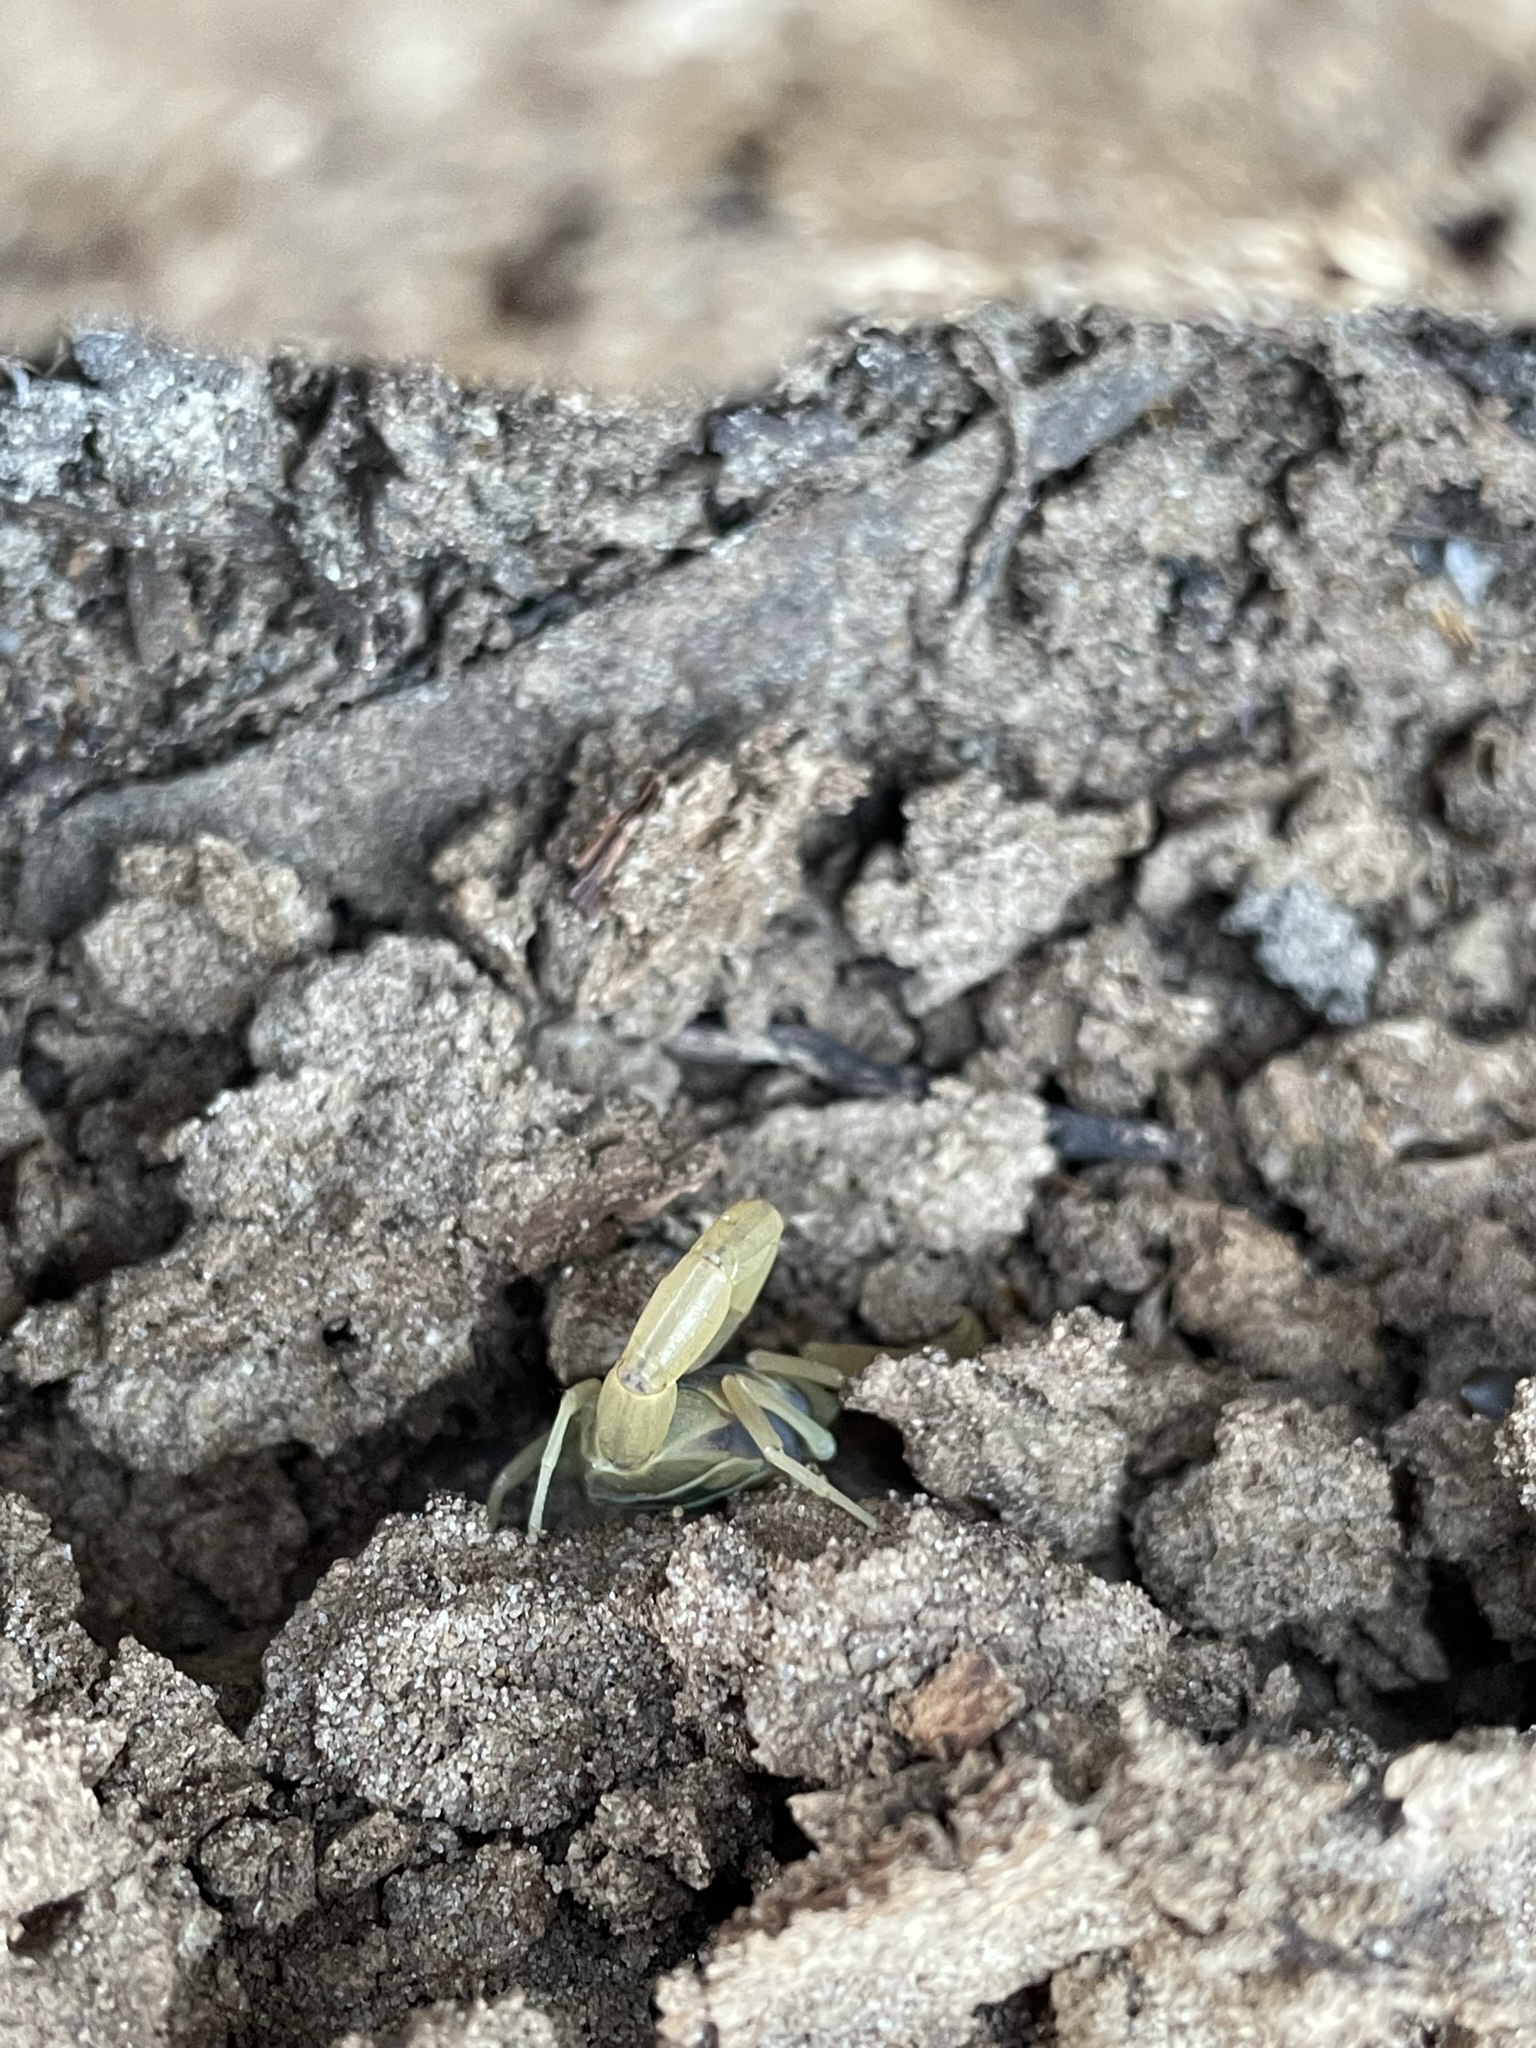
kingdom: Animalia
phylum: Arthropoda
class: Arachnida
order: Scorpiones
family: Buthidae
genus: Centruroides
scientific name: Centruroides vittatus
